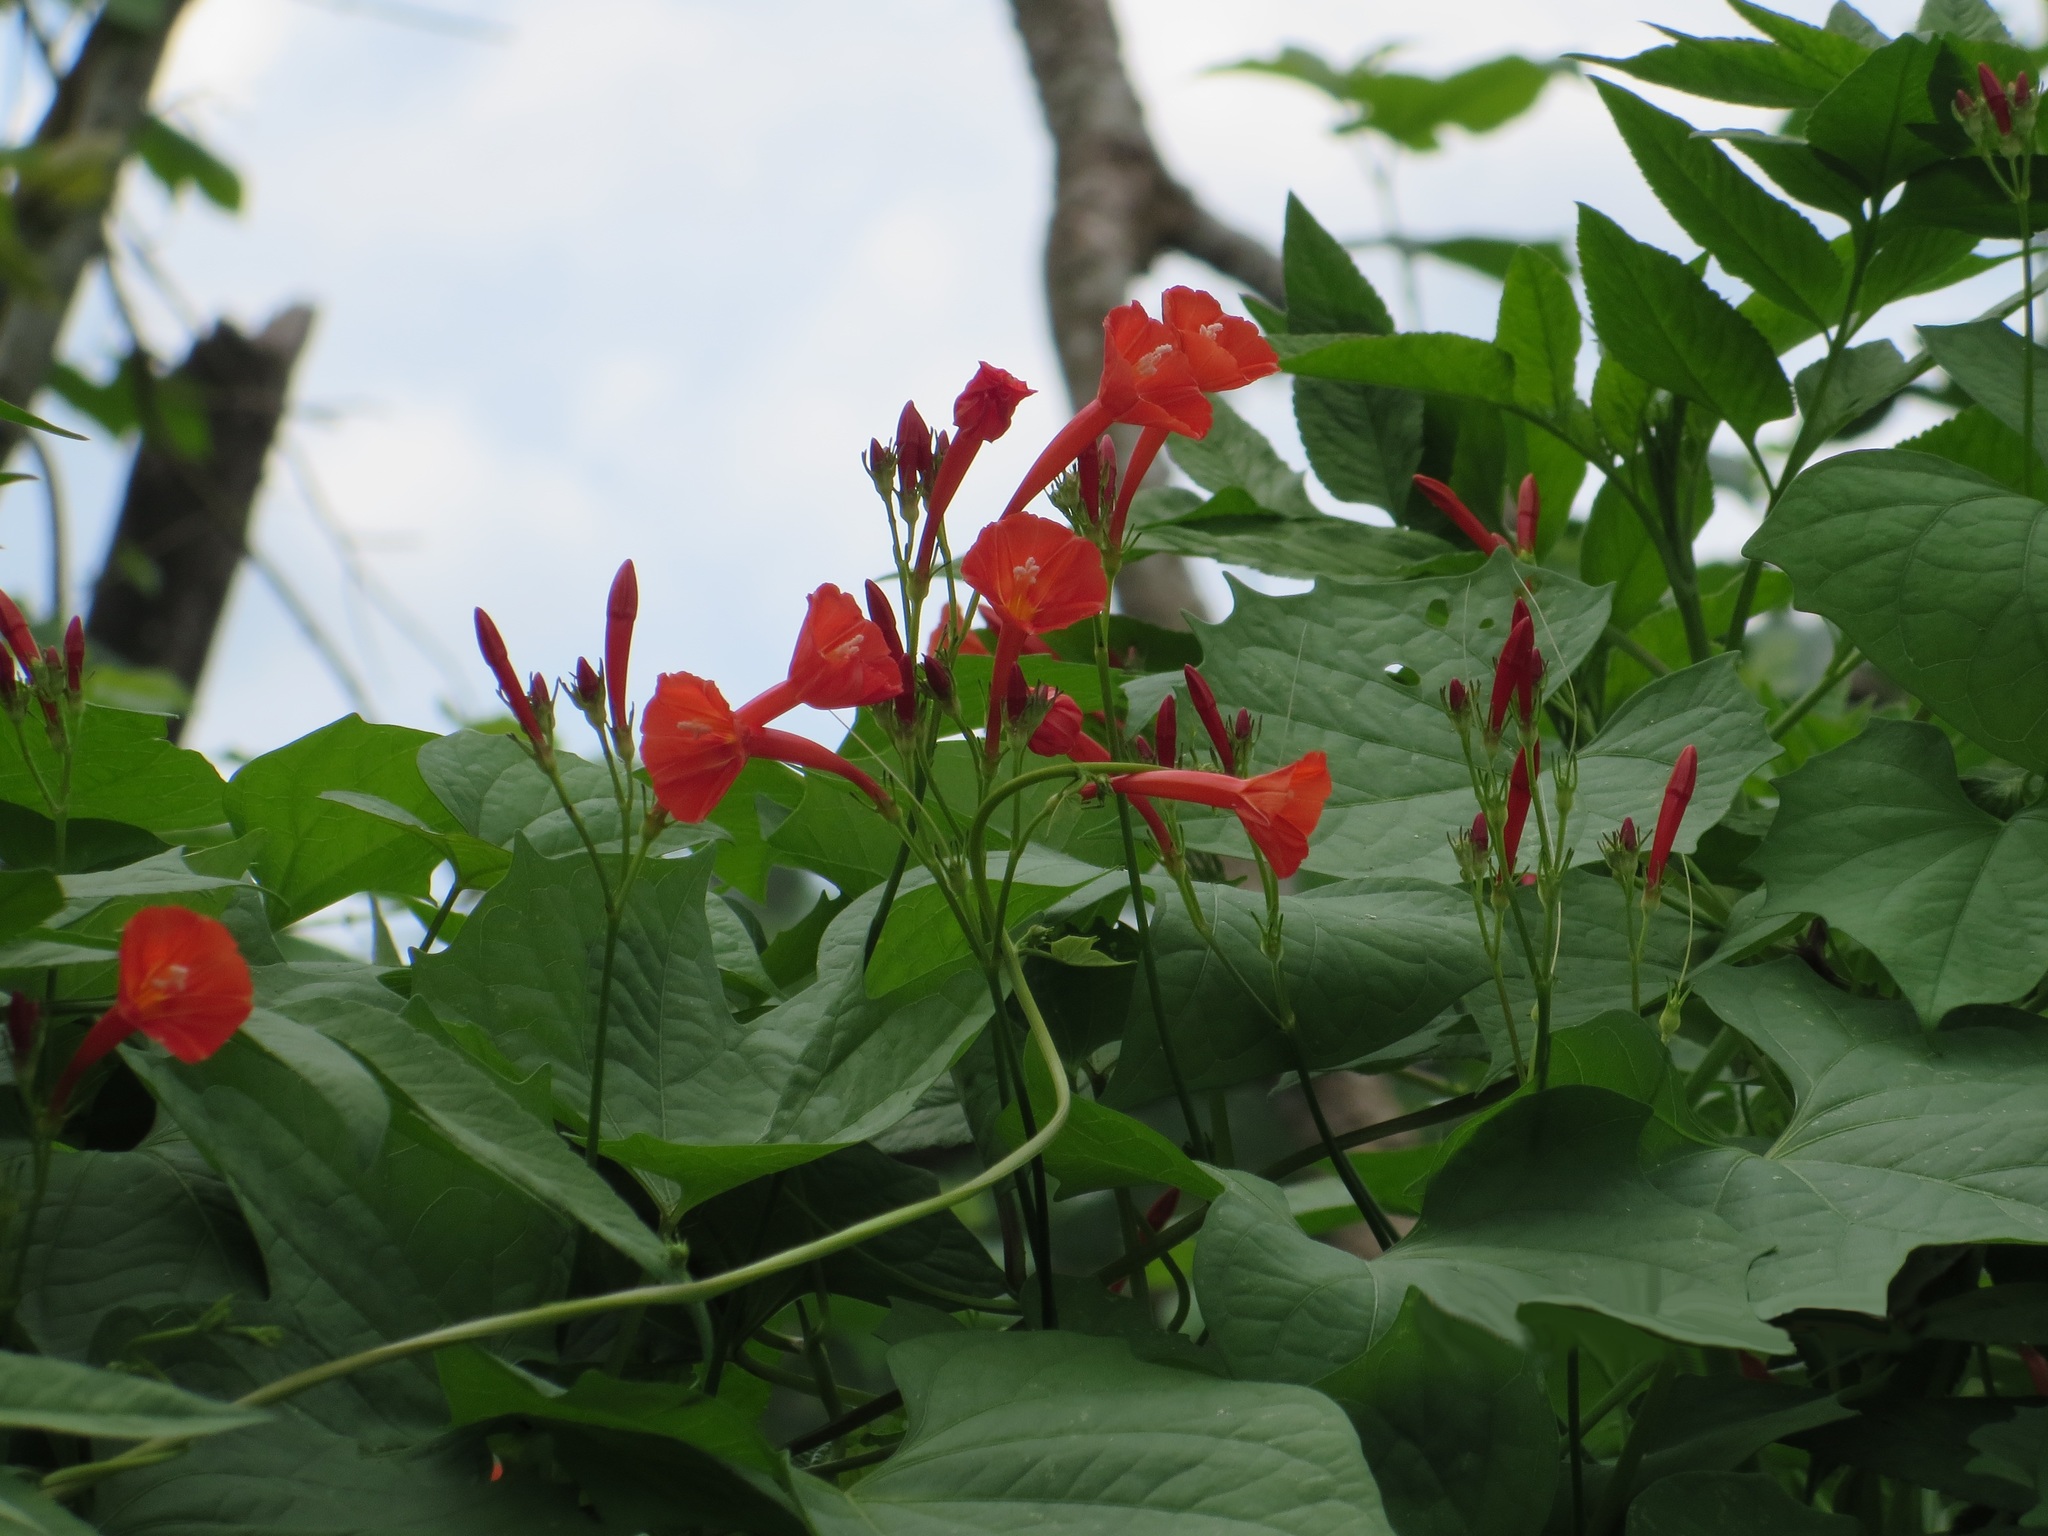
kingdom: Plantae
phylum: Tracheophyta
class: Magnoliopsida
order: Solanales
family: Convolvulaceae
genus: Ipomoea
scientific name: Ipomoea hederifolia
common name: Ivy-leaf morning-glory
